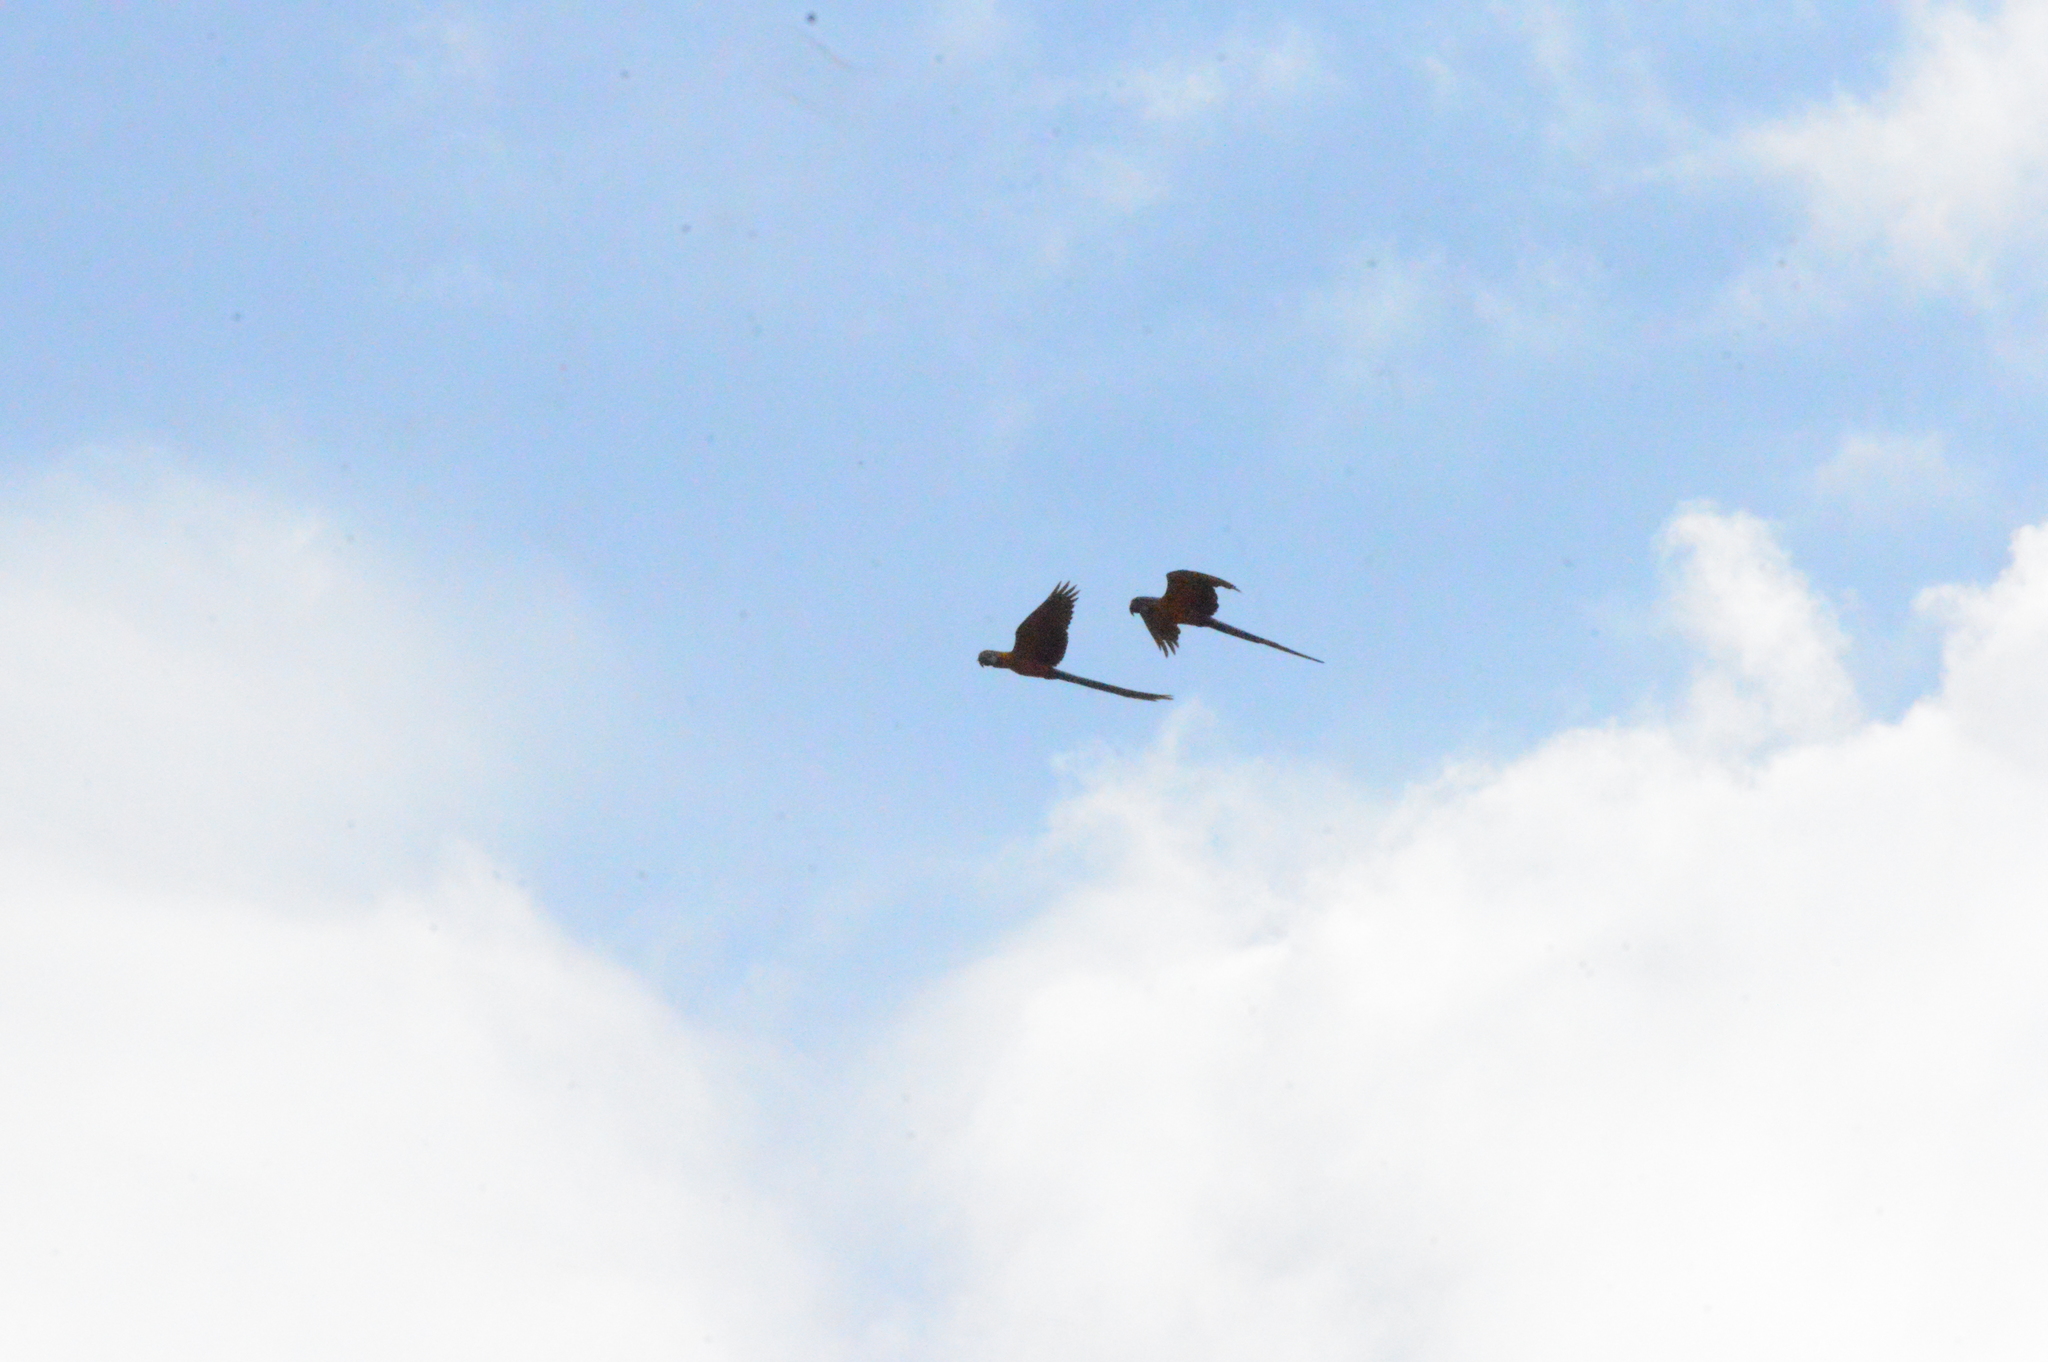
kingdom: Animalia
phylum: Chordata
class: Aves
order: Psittaciformes
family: Psittacidae
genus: Ara
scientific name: Ara ararauna
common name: Blue-and-yellow macaw
